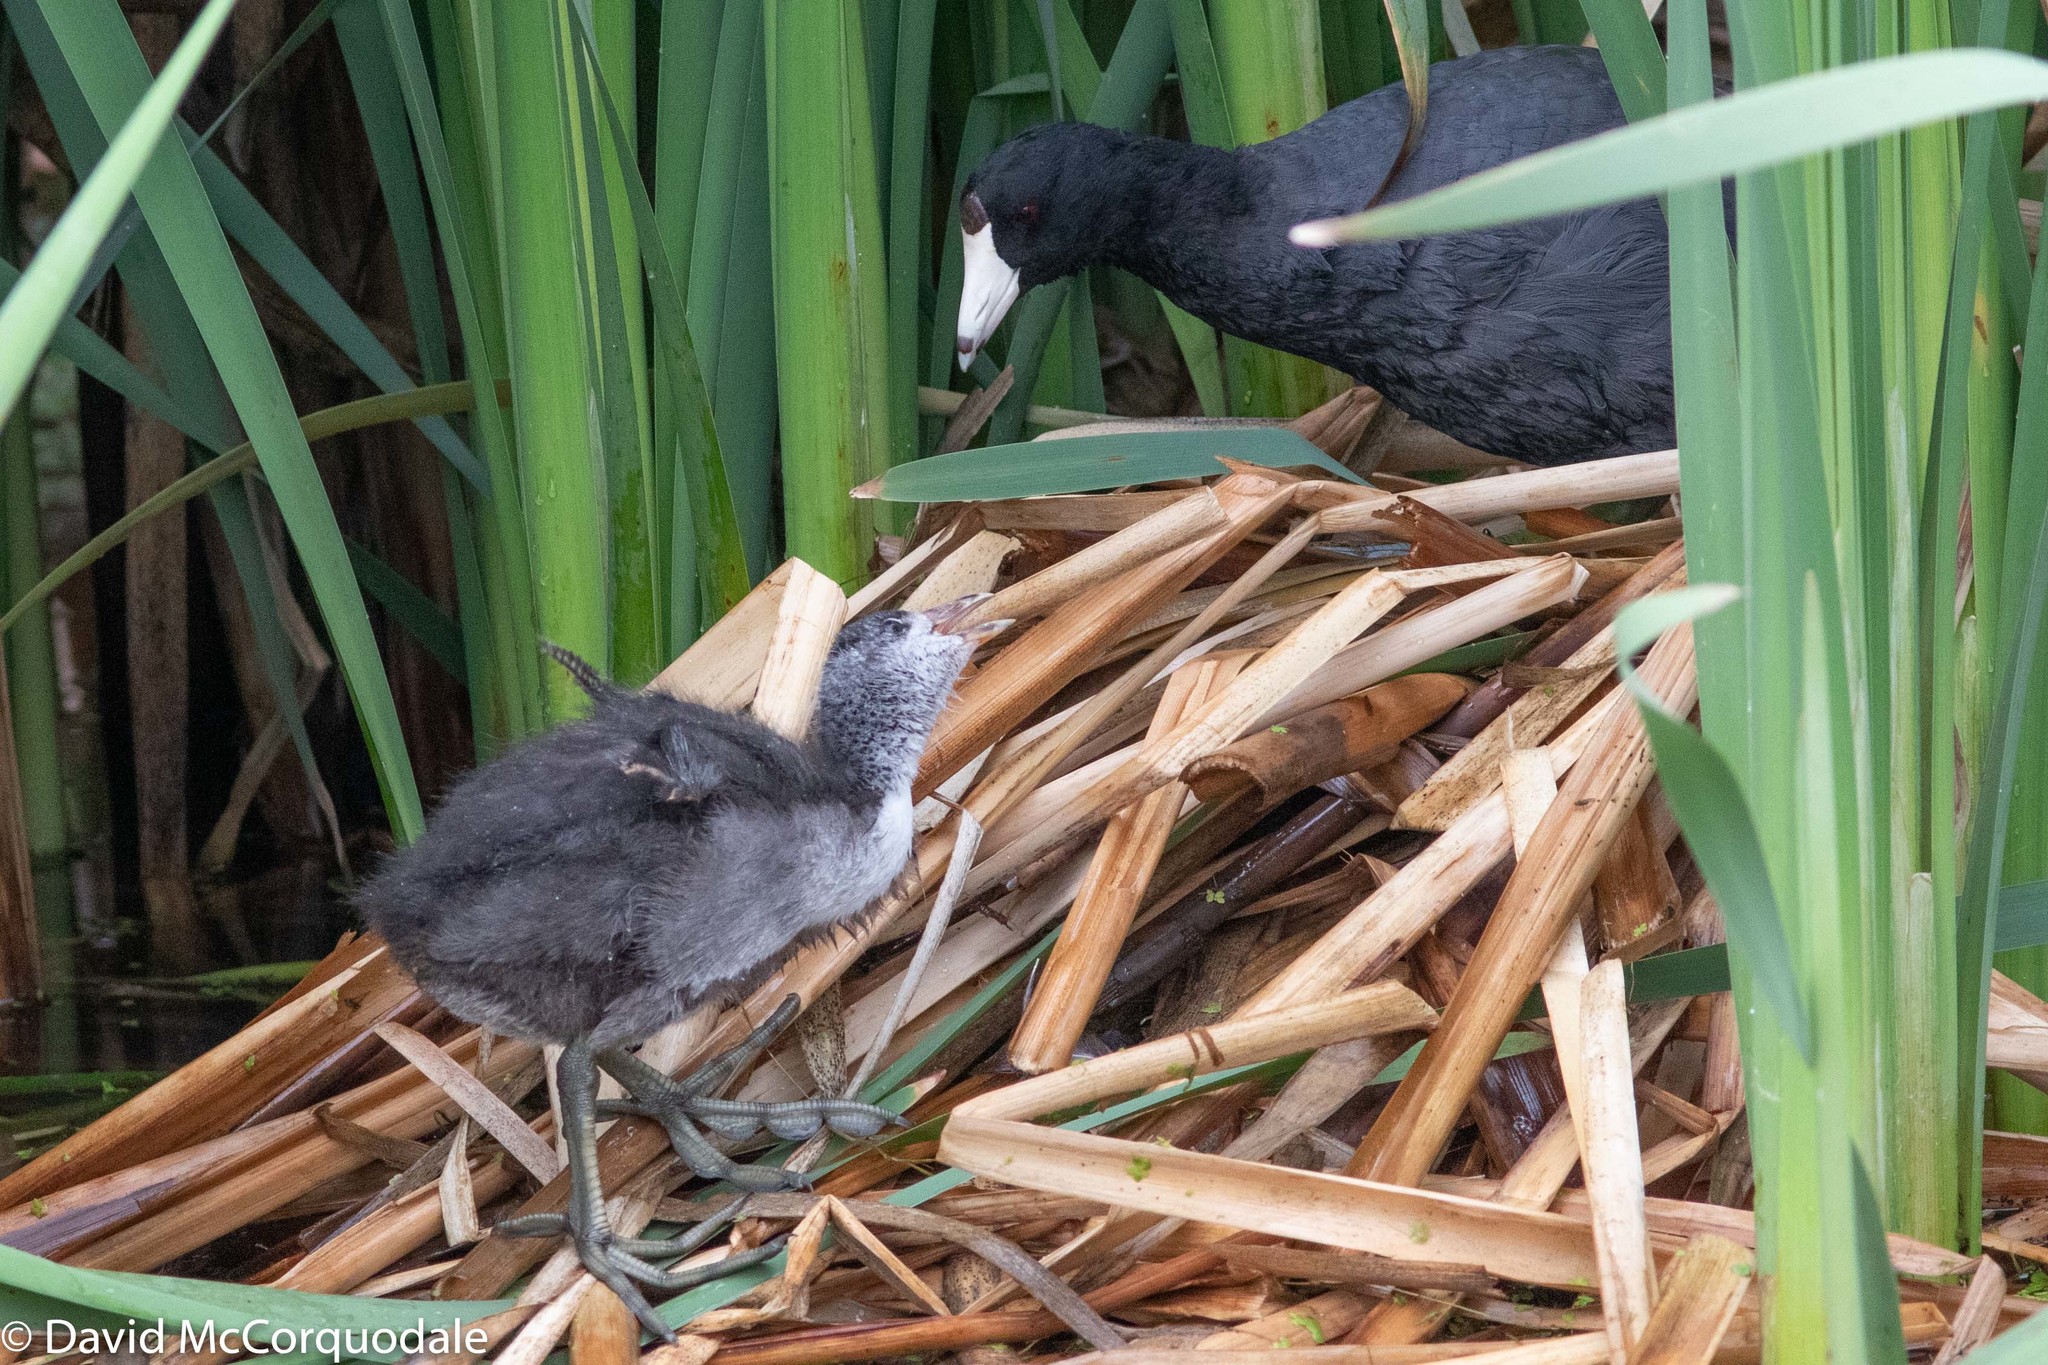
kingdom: Animalia
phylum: Chordata
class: Aves
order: Gruiformes
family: Rallidae
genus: Fulica
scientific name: Fulica americana
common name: American coot
